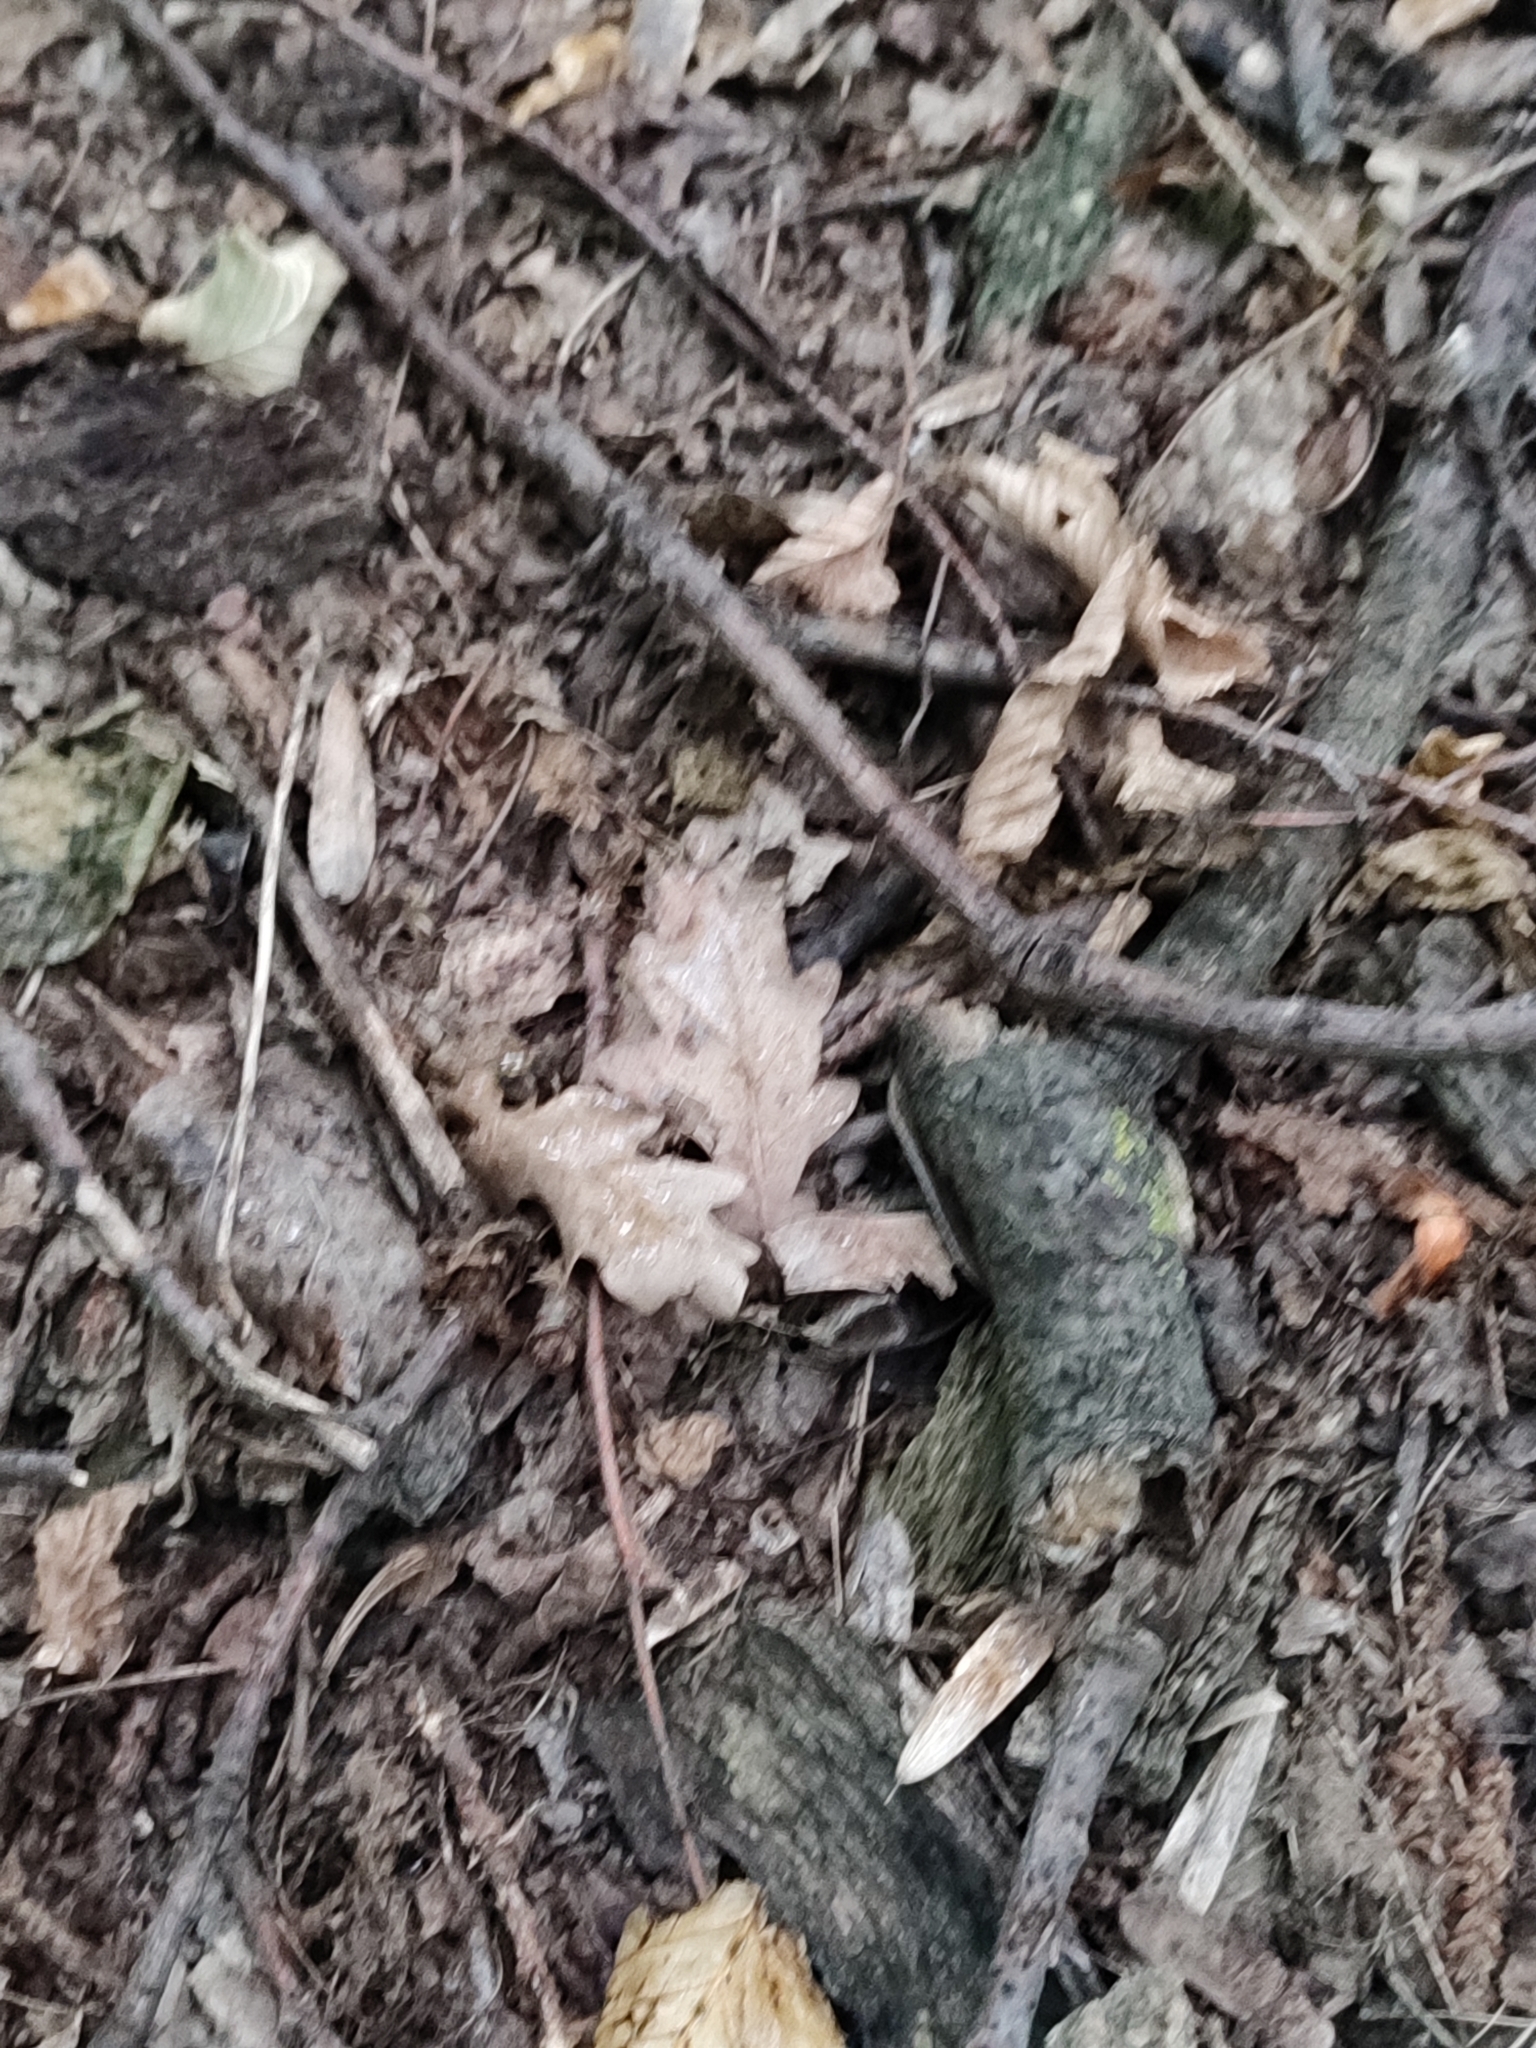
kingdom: Plantae
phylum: Tracheophyta
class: Magnoliopsida
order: Fagales
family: Fagaceae
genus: Quercus
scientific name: Quercus robur
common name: Pedunculate oak
